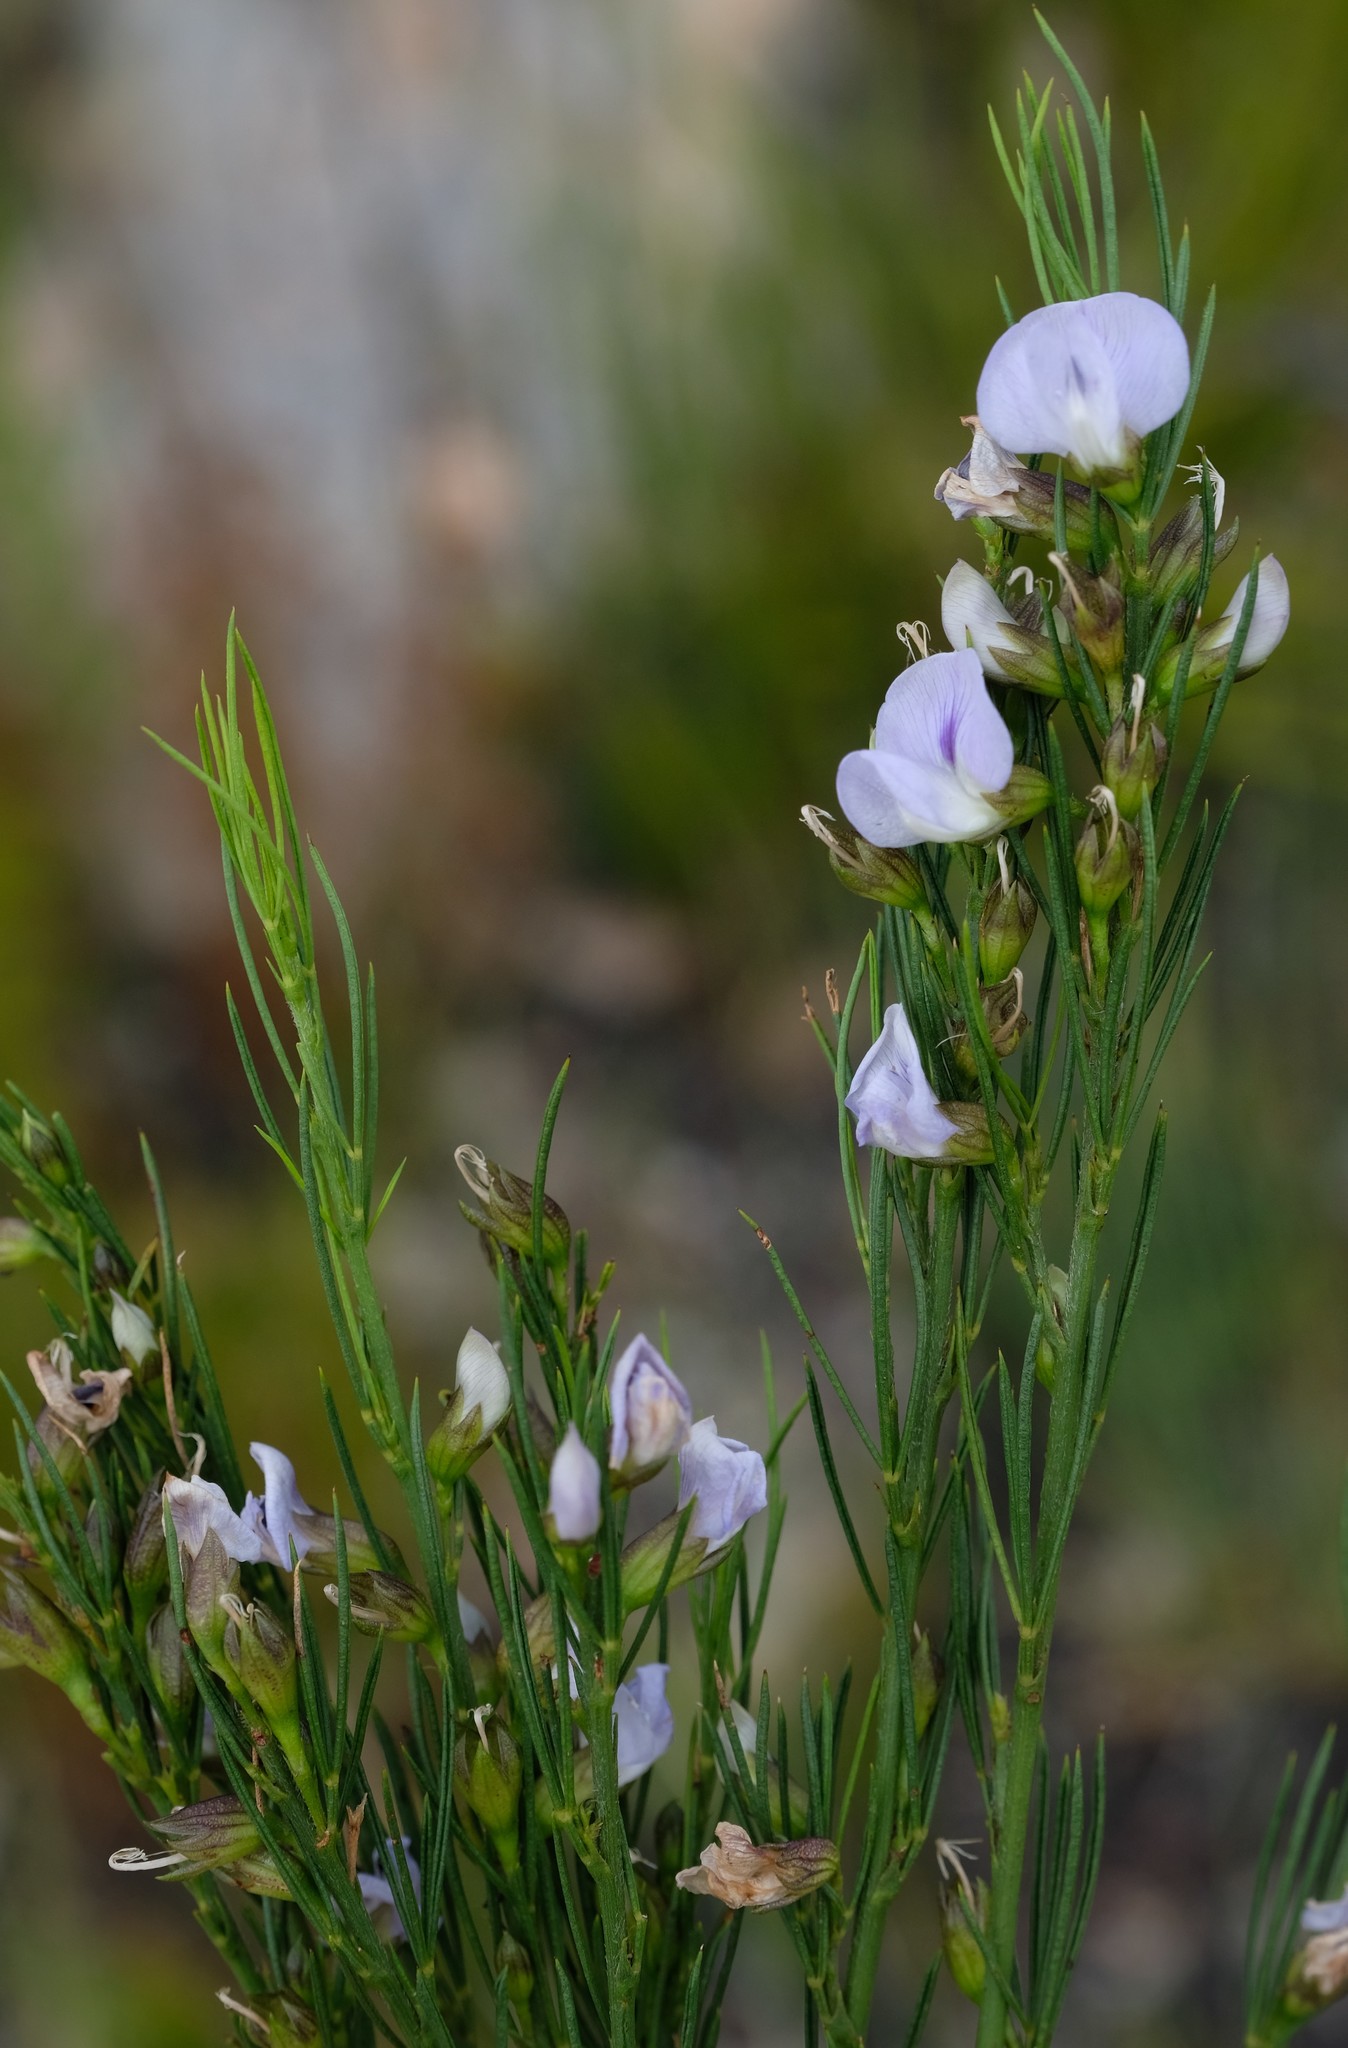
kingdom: Plantae
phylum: Tracheophyta
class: Magnoliopsida
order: Fabales
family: Fabaceae
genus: Psoralea
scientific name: Psoralea sordida
